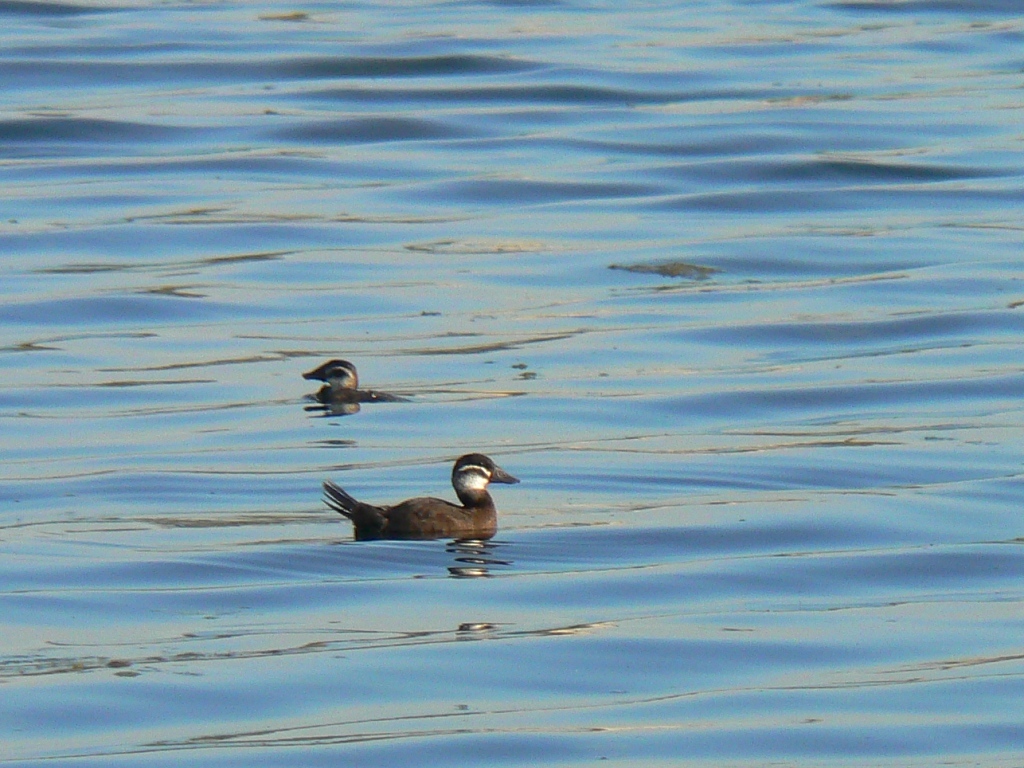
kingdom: Animalia
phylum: Chordata
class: Aves
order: Anseriformes
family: Anatidae
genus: Oxyura
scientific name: Oxyura leucocephala
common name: White-headed duck
